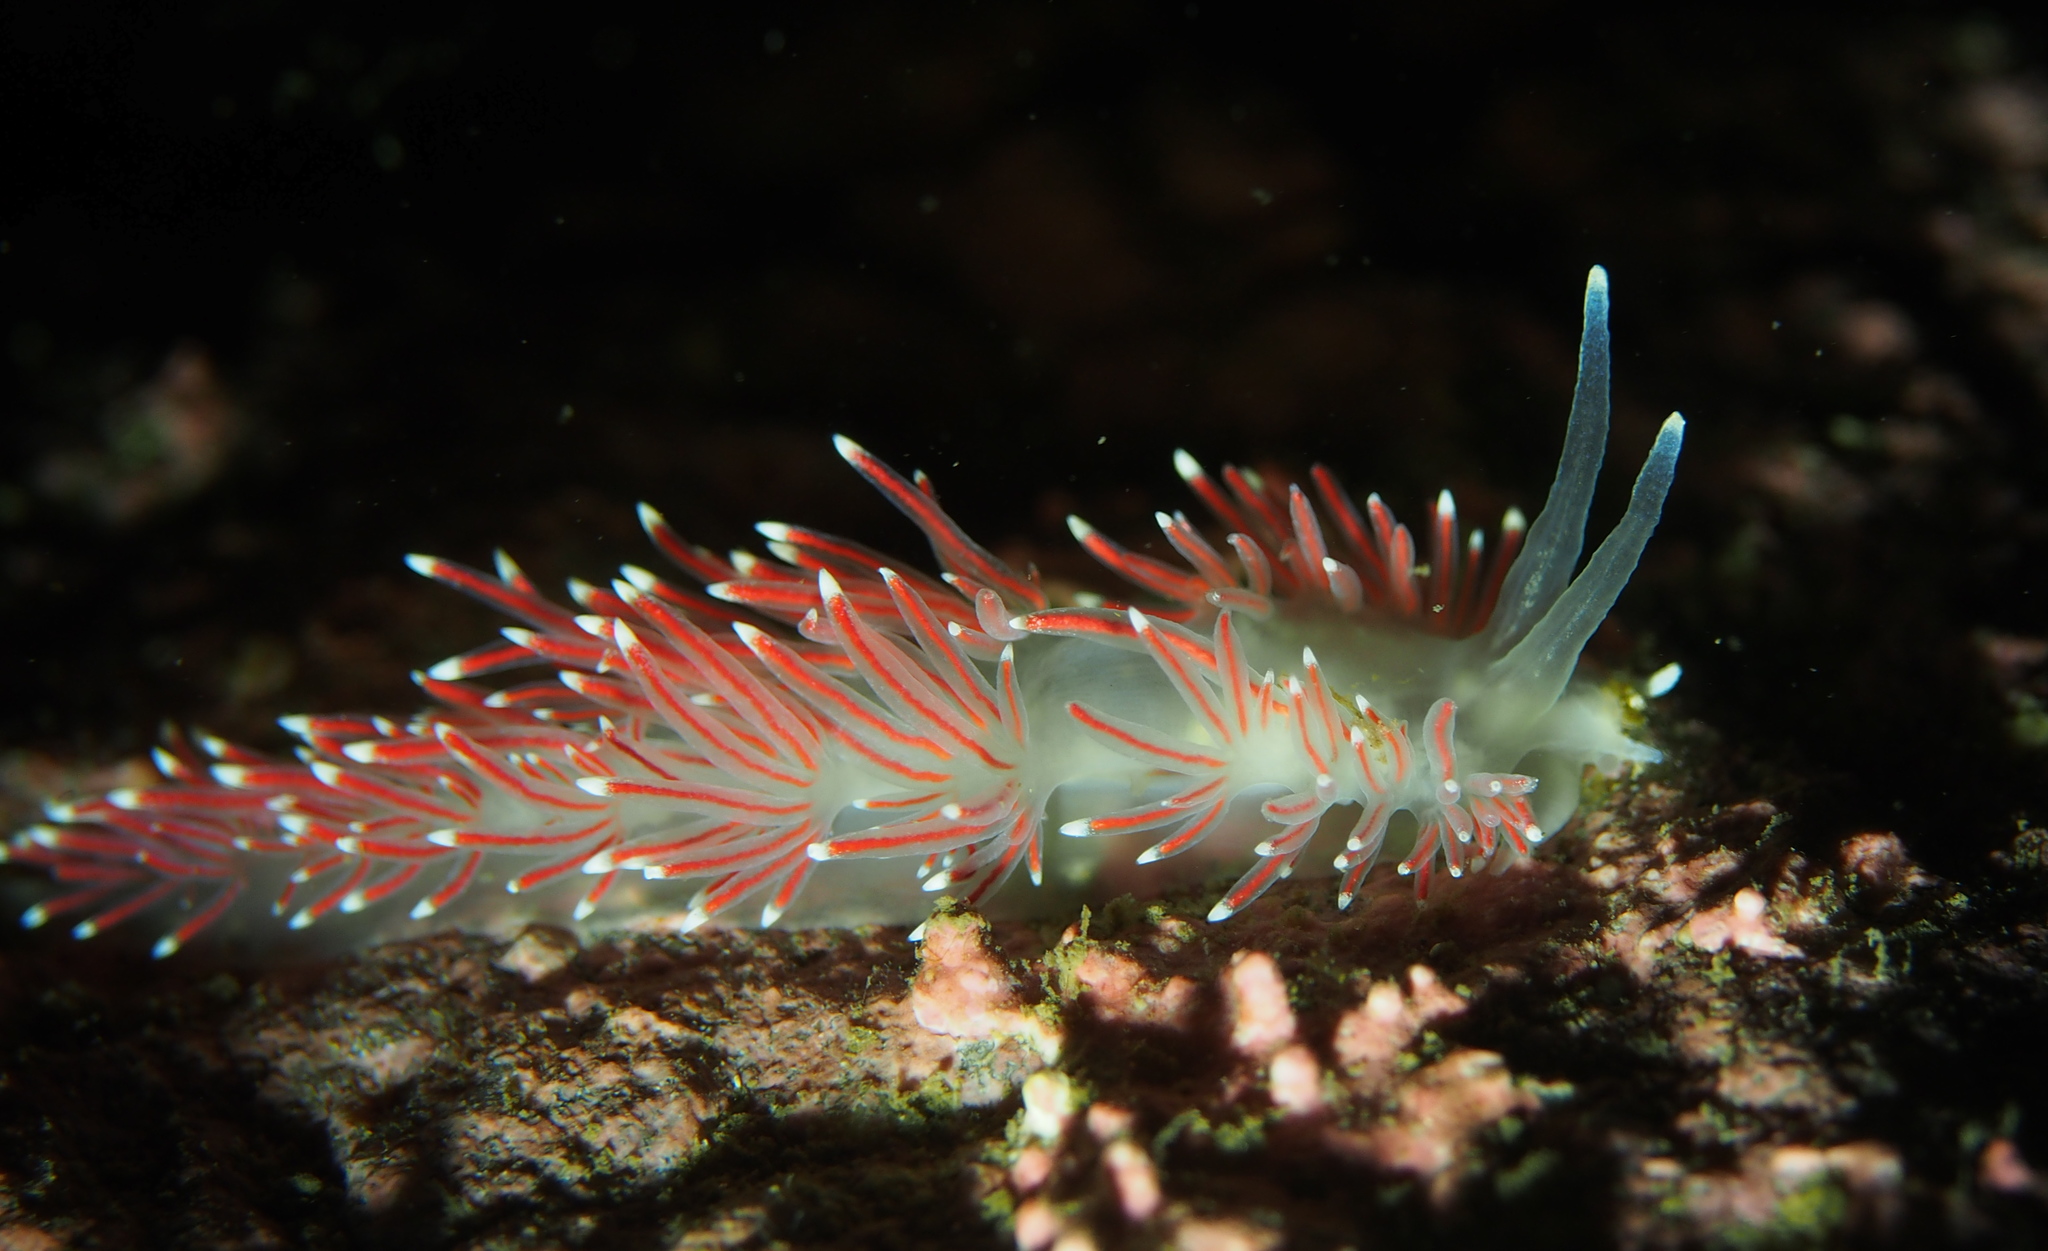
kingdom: Animalia
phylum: Mollusca
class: Gastropoda
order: Nudibranchia
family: Flabellinidae
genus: Carronella
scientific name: Carronella pellucida
